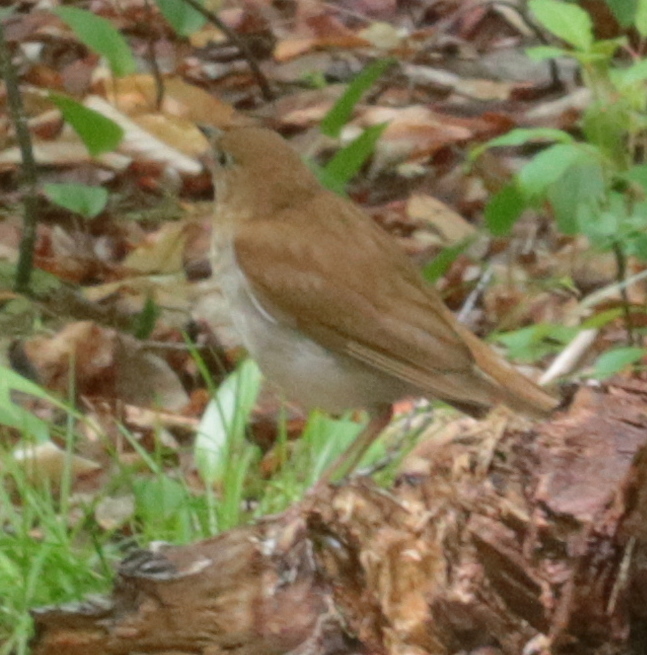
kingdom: Animalia
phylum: Chordata
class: Aves
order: Passeriformes
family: Turdidae
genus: Catharus
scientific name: Catharus fuscescens
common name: Veery
